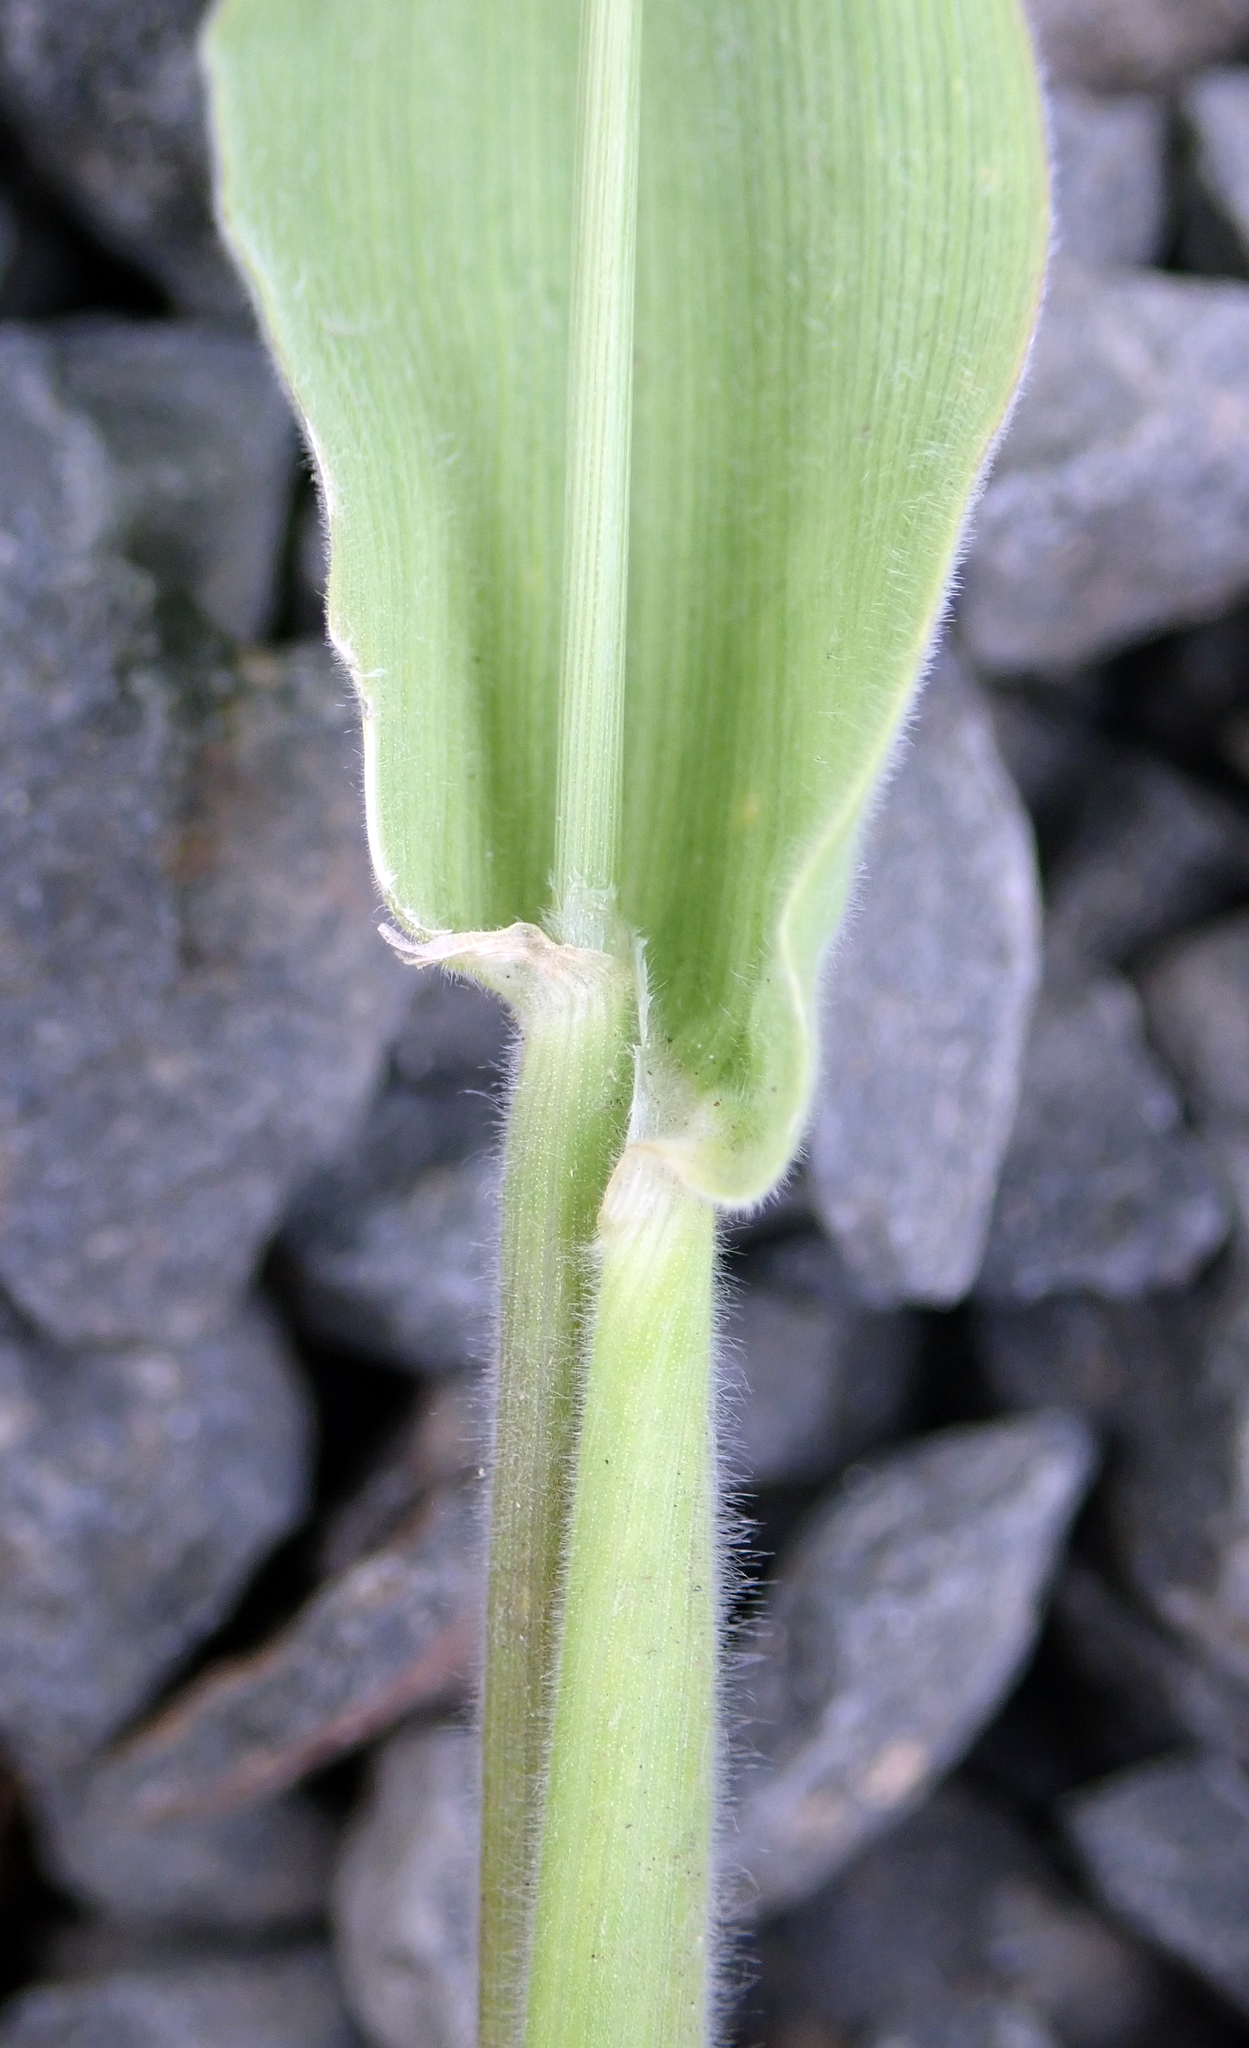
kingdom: Plantae
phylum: Tracheophyta
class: Liliopsida
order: Poales
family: Poaceae
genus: Lagurus
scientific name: Lagurus ovatus
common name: Hare's-tail
